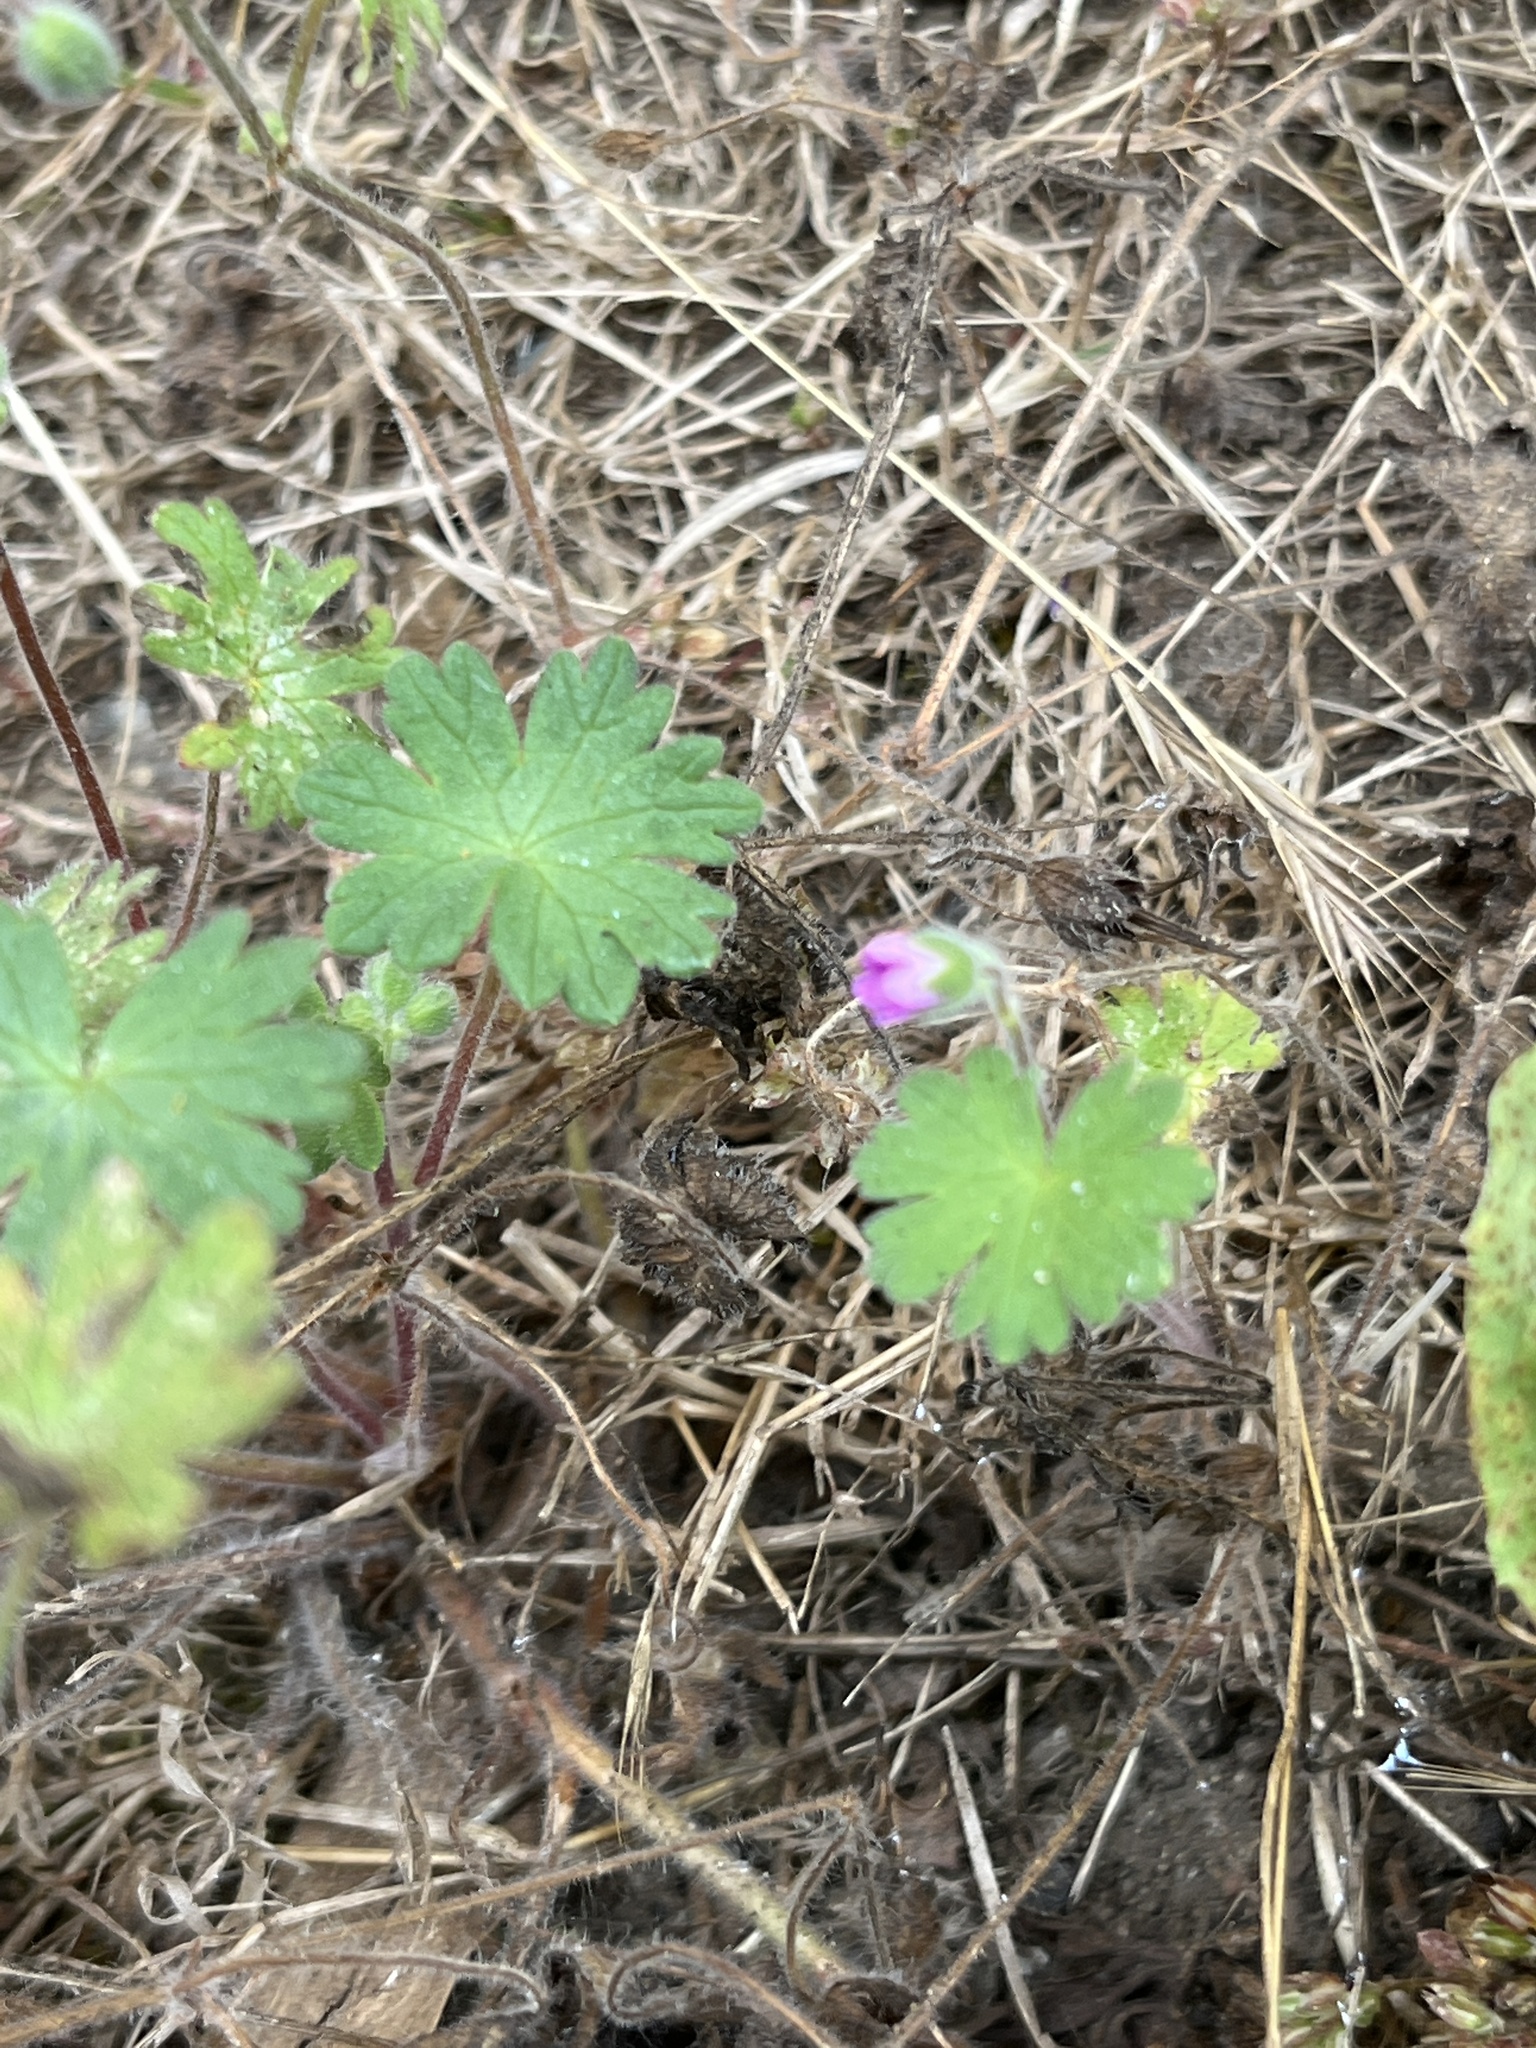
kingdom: Plantae
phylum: Tracheophyta
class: Magnoliopsida
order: Geraniales
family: Geraniaceae
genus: Geranium
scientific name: Geranium molle
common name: Dove's-foot crane's-bill
